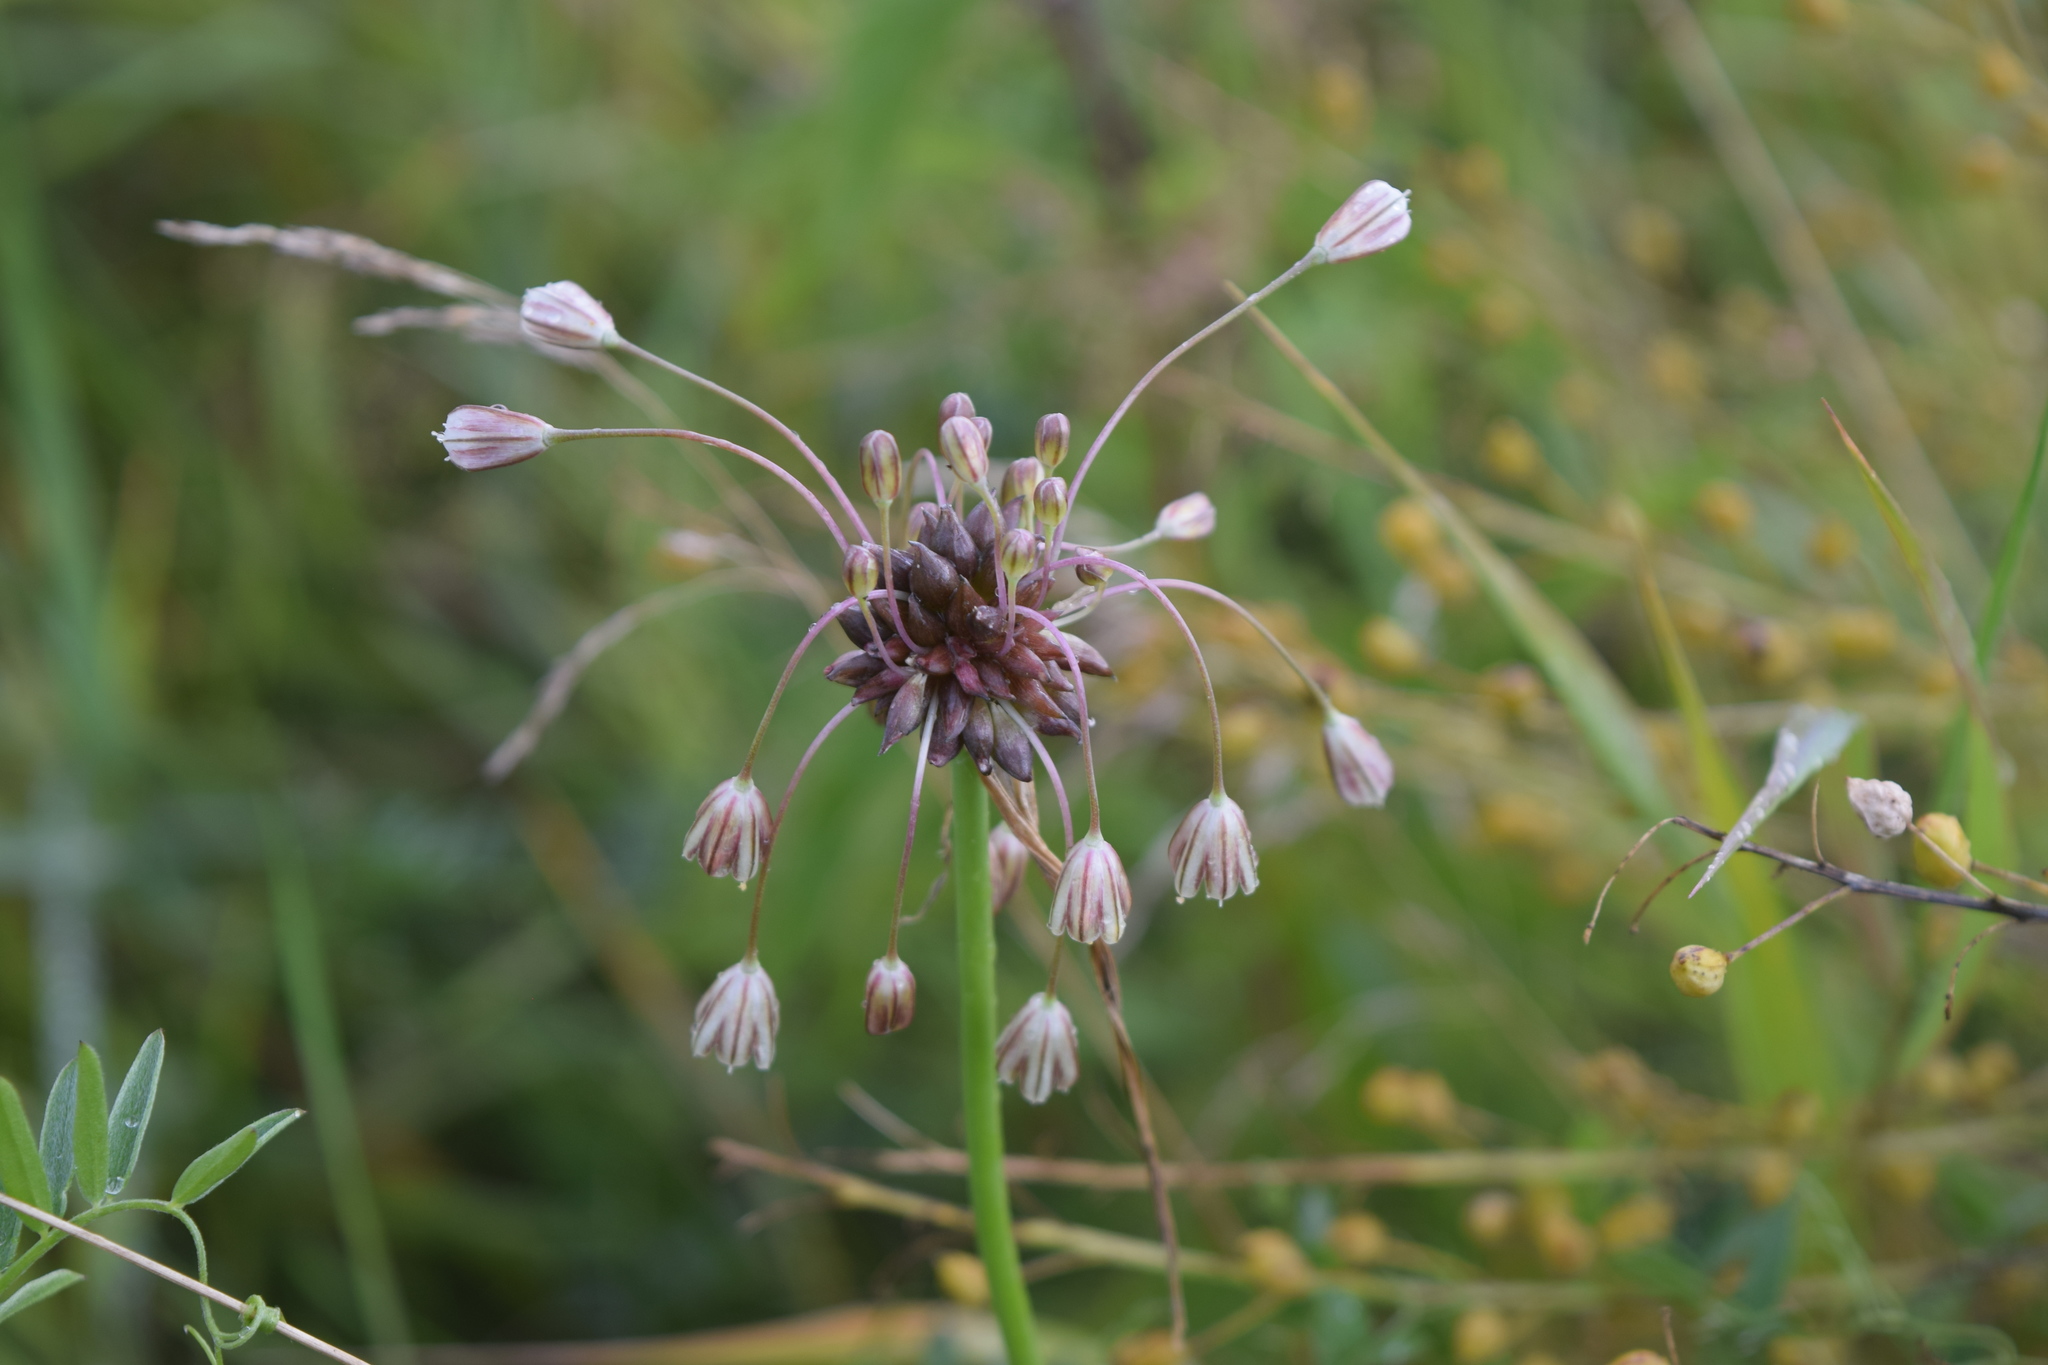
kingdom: Plantae
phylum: Tracheophyta
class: Liliopsida
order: Asparagales
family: Amaryllidaceae
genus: Allium
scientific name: Allium oleraceum
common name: Field garlic
